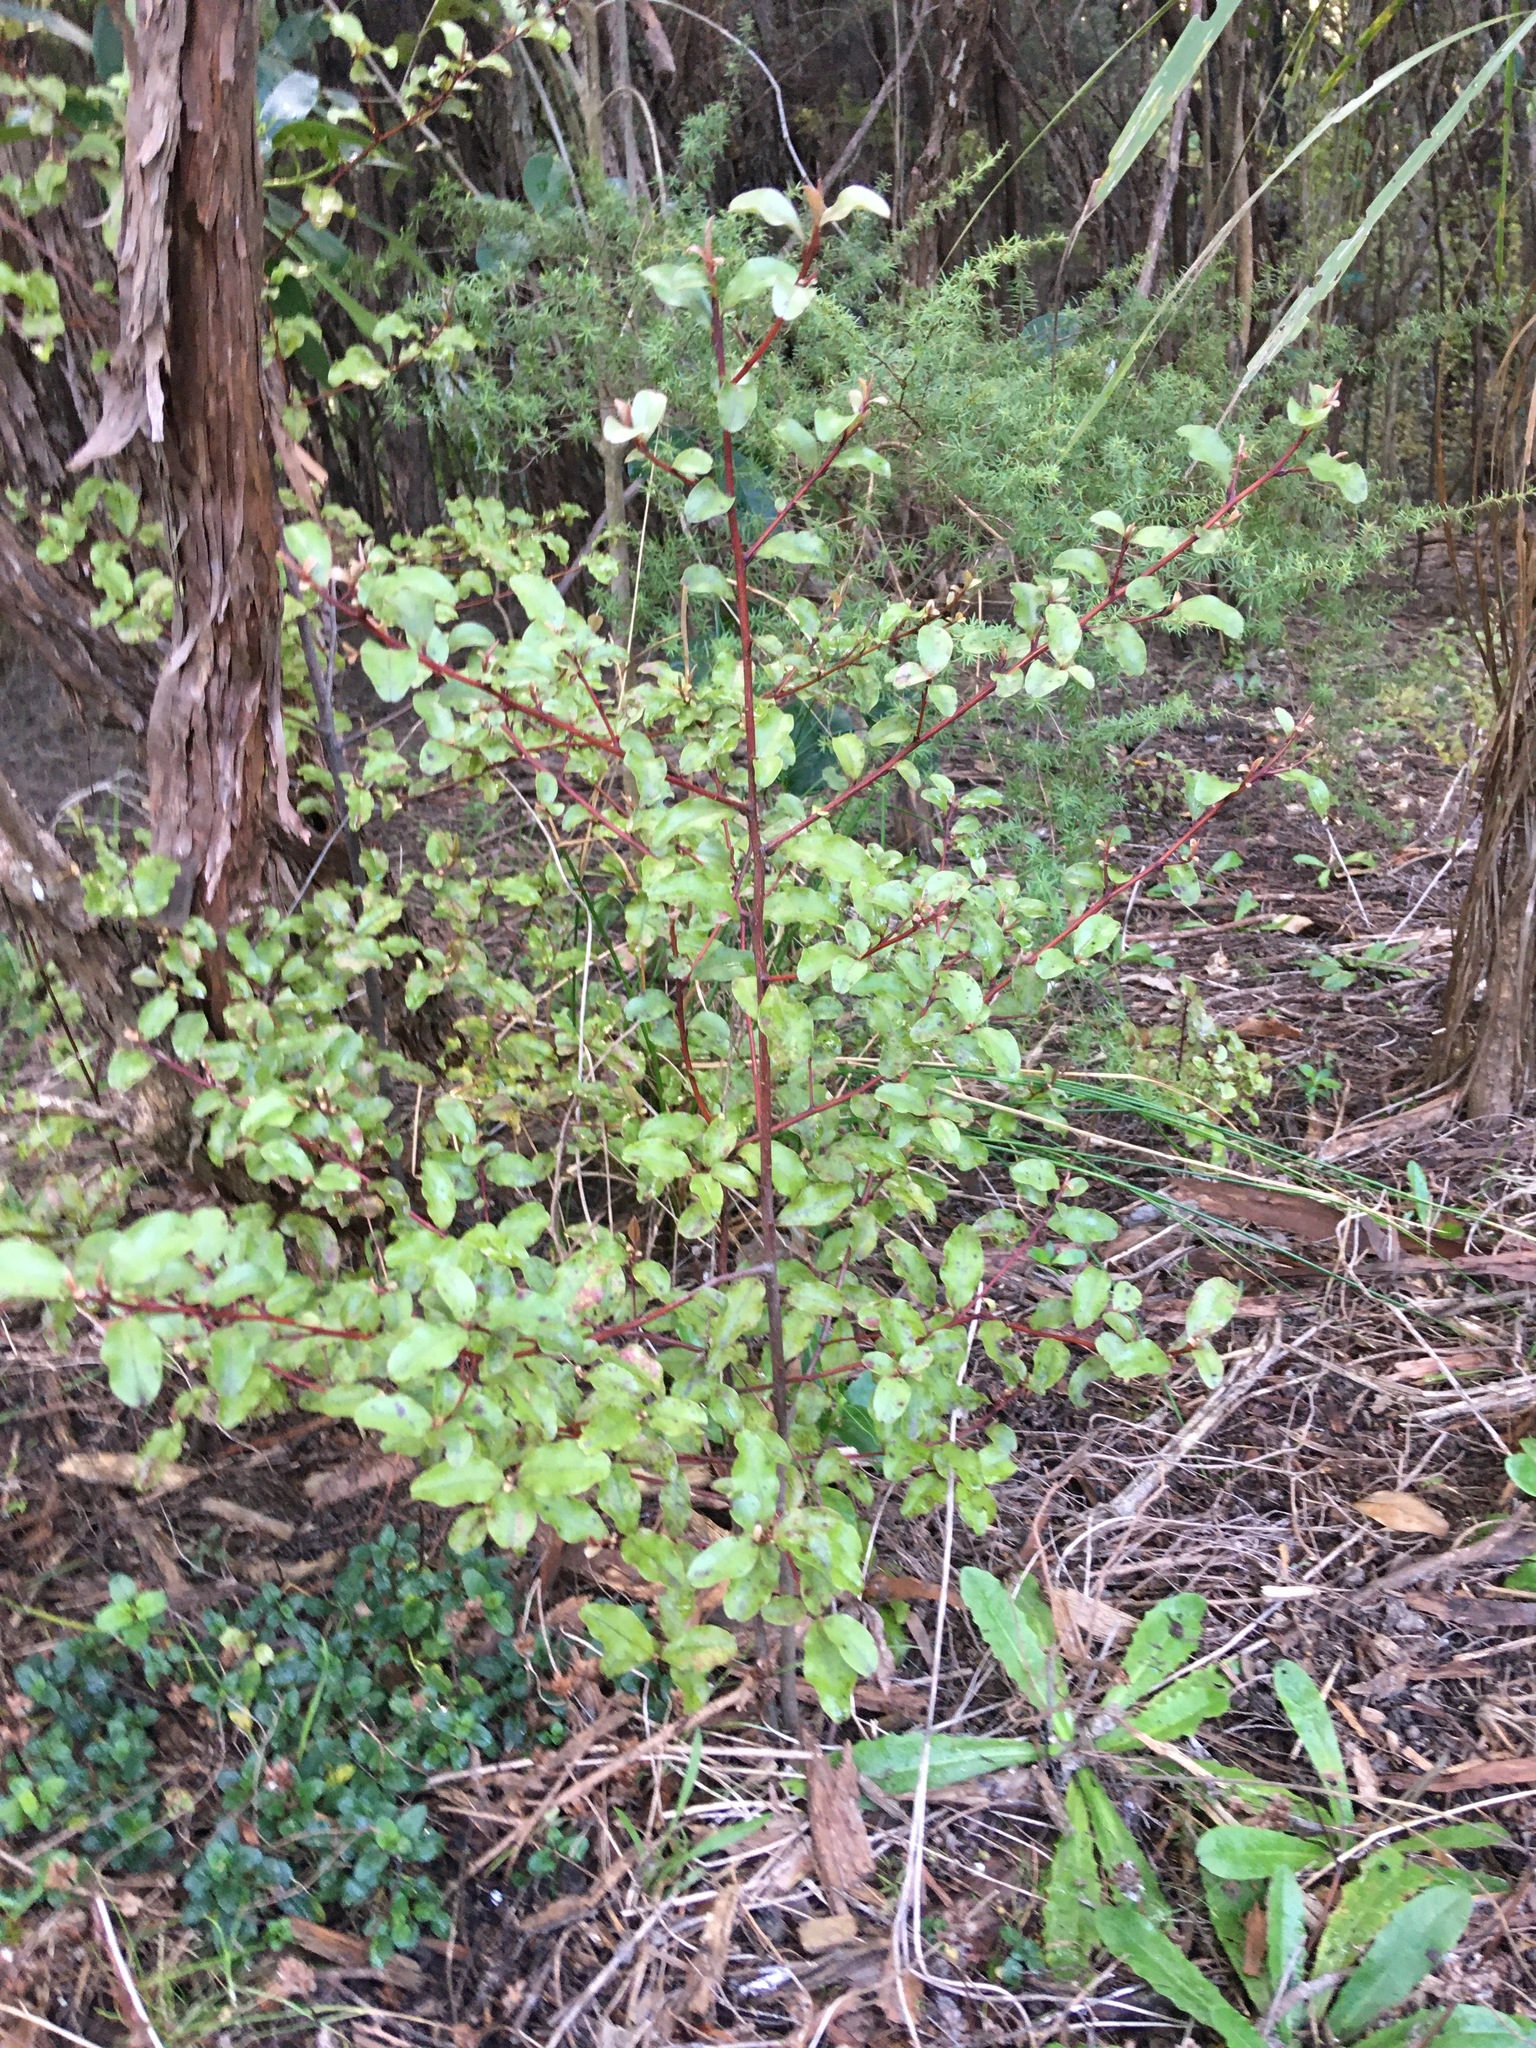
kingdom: Plantae
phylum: Tracheophyta
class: Magnoliopsida
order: Ericales
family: Primulaceae
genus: Myrsine
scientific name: Myrsine australis
